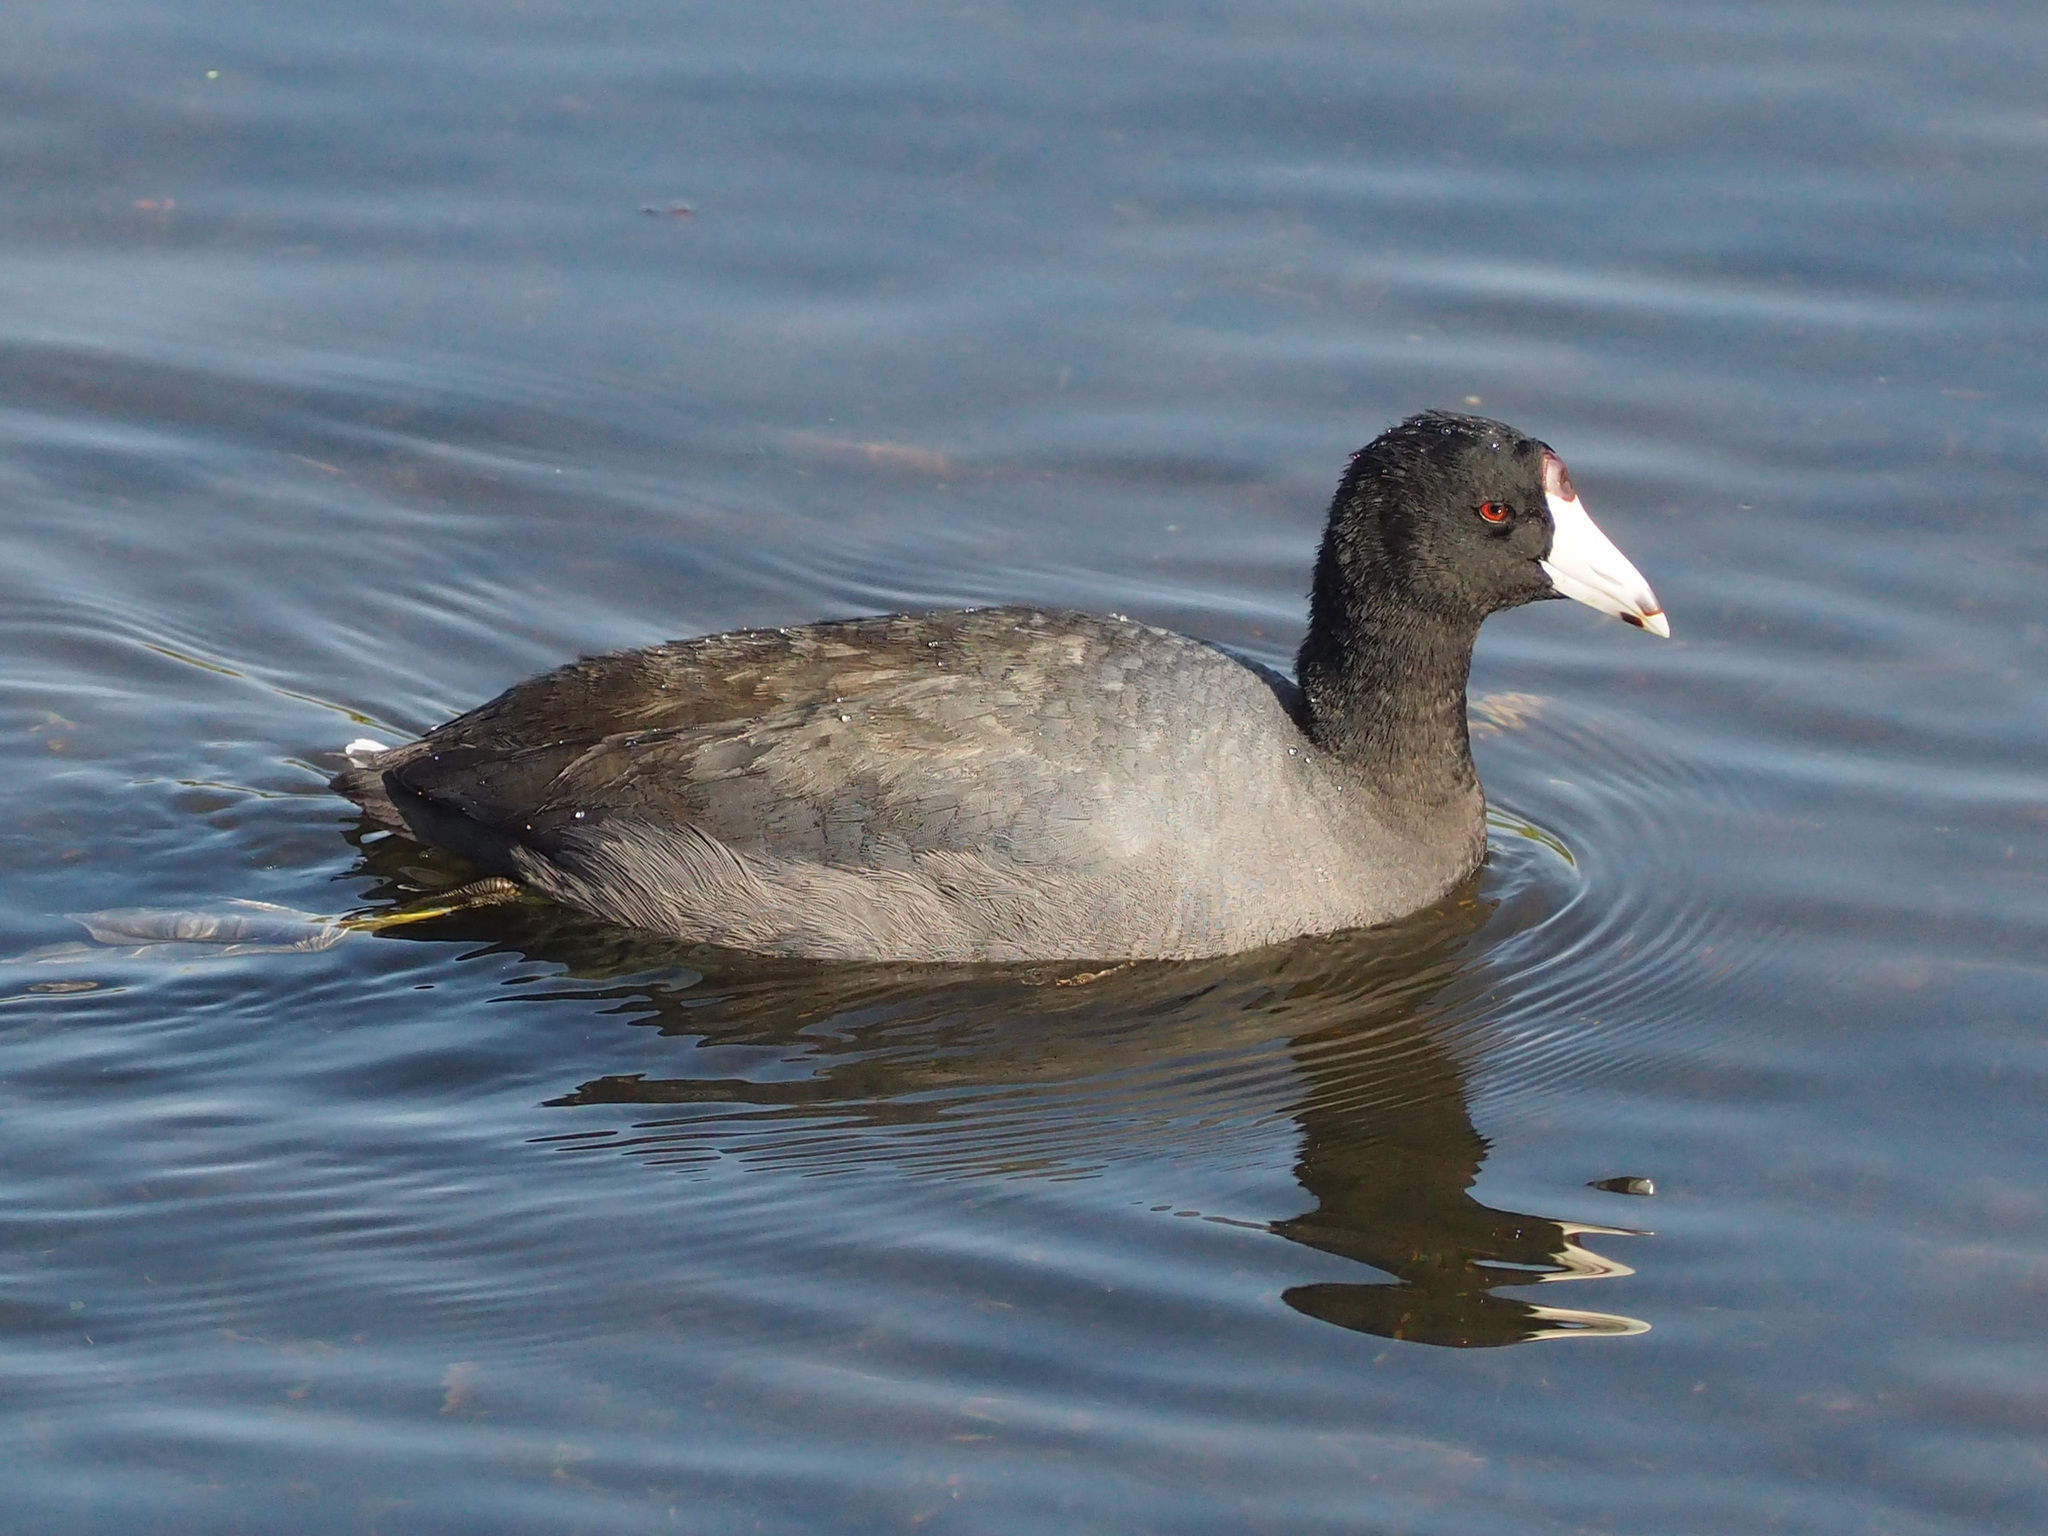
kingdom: Animalia
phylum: Chordata
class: Aves
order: Gruiformes
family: Rallidae
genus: Fulica
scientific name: Fulica americana
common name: American coot
